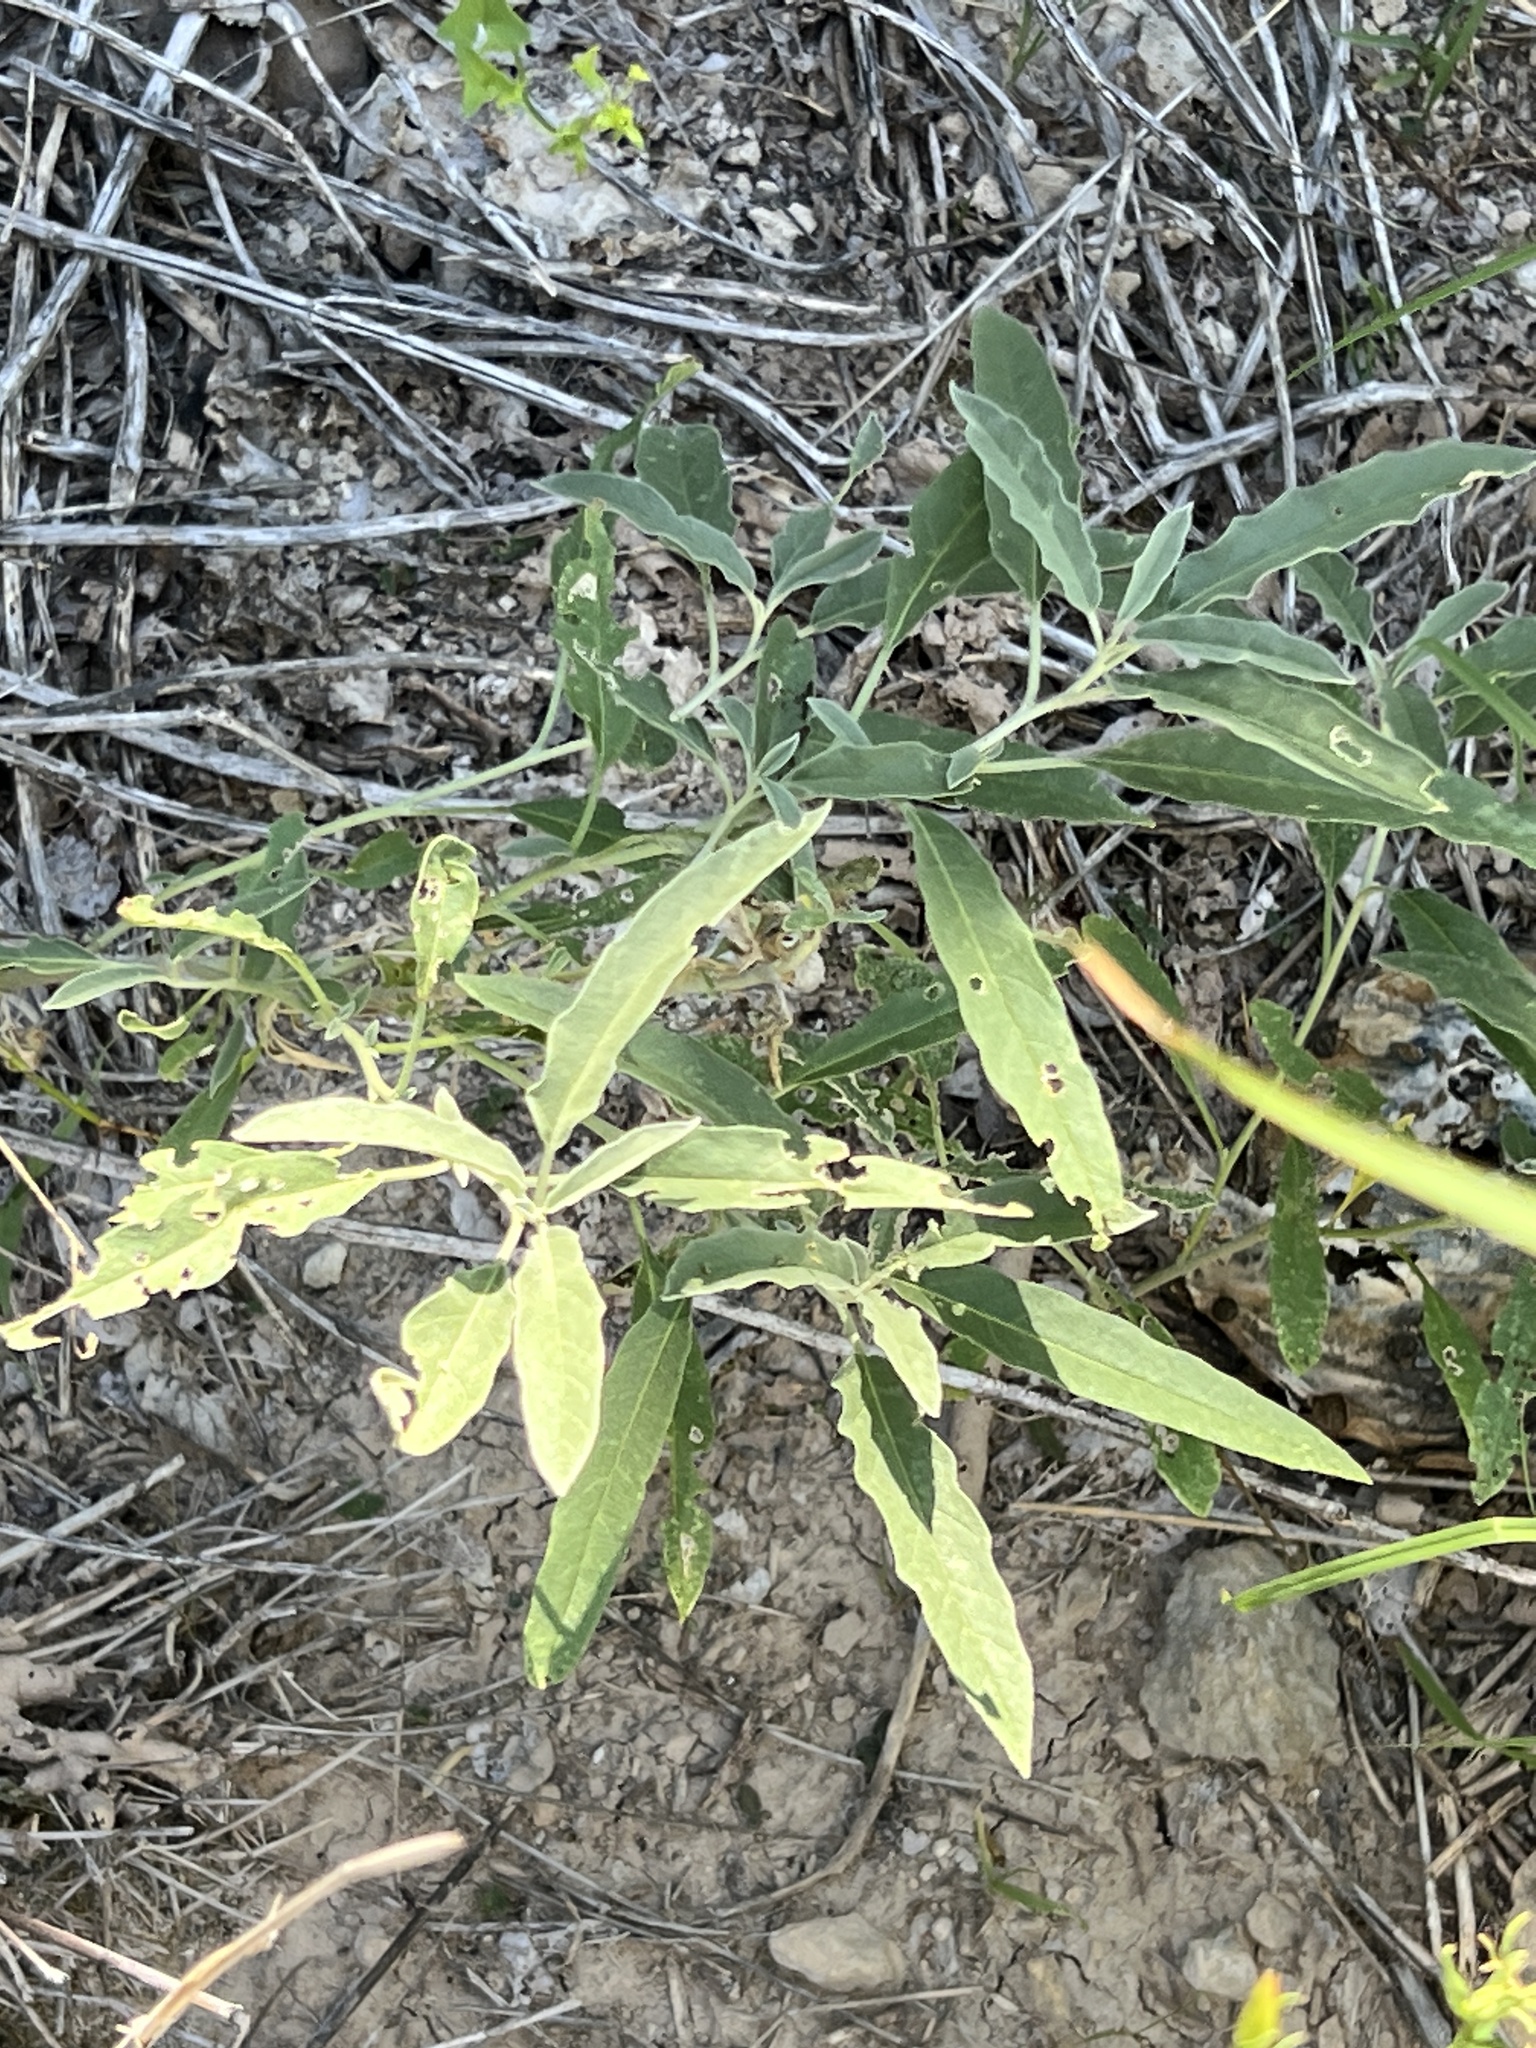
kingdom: Plantae
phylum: Tracheophyta
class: Magnoliopsida
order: Solanales
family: Solanaceae
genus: Solanum
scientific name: Solanum elaeagnifolium
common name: Silverleaf nightshade
